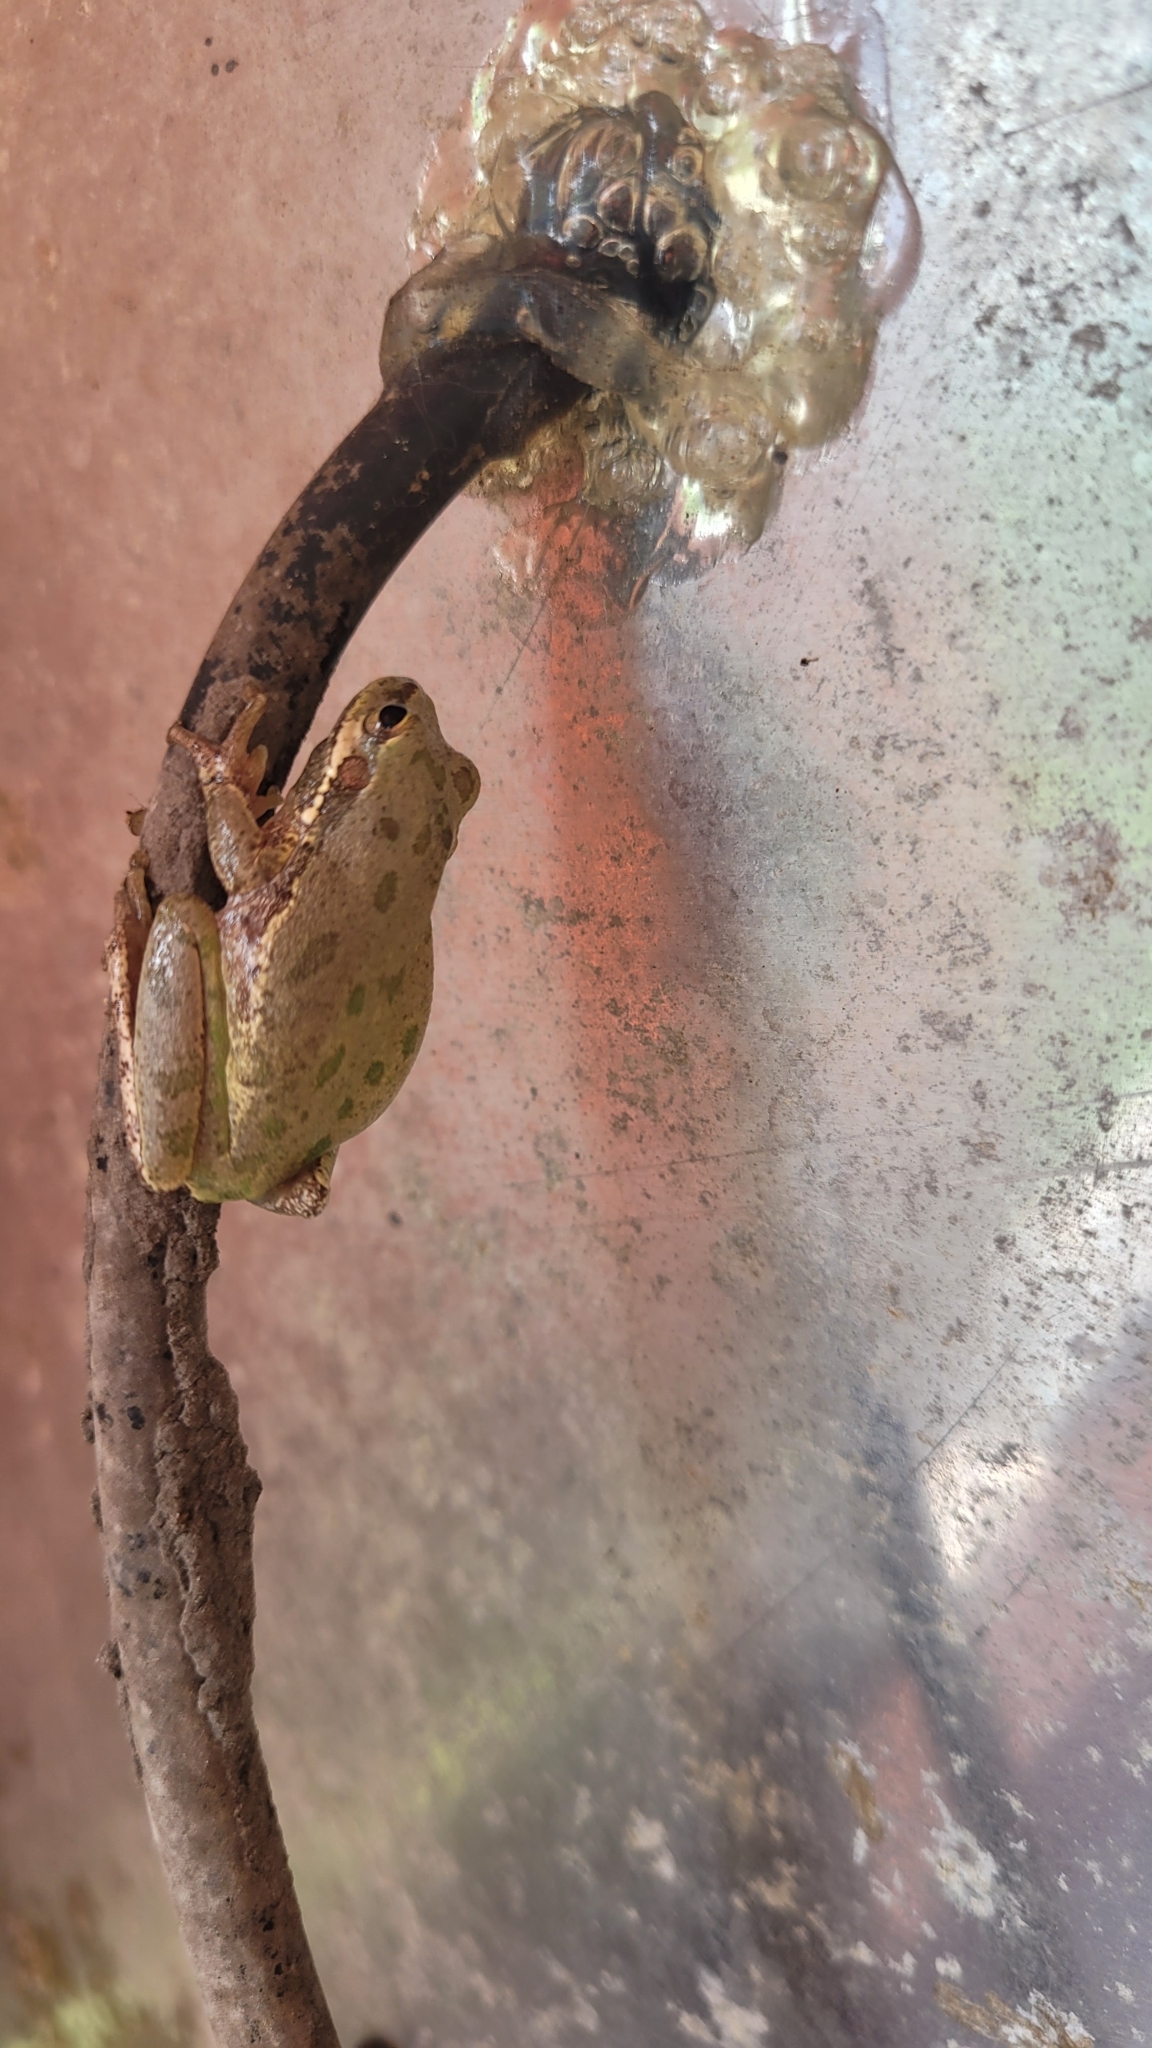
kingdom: Animalia
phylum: Chordata
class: Amphibia
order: Anura
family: Hylidae
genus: Dryophytes
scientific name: Dryophytes squirellus
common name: Squirrel treefrog
